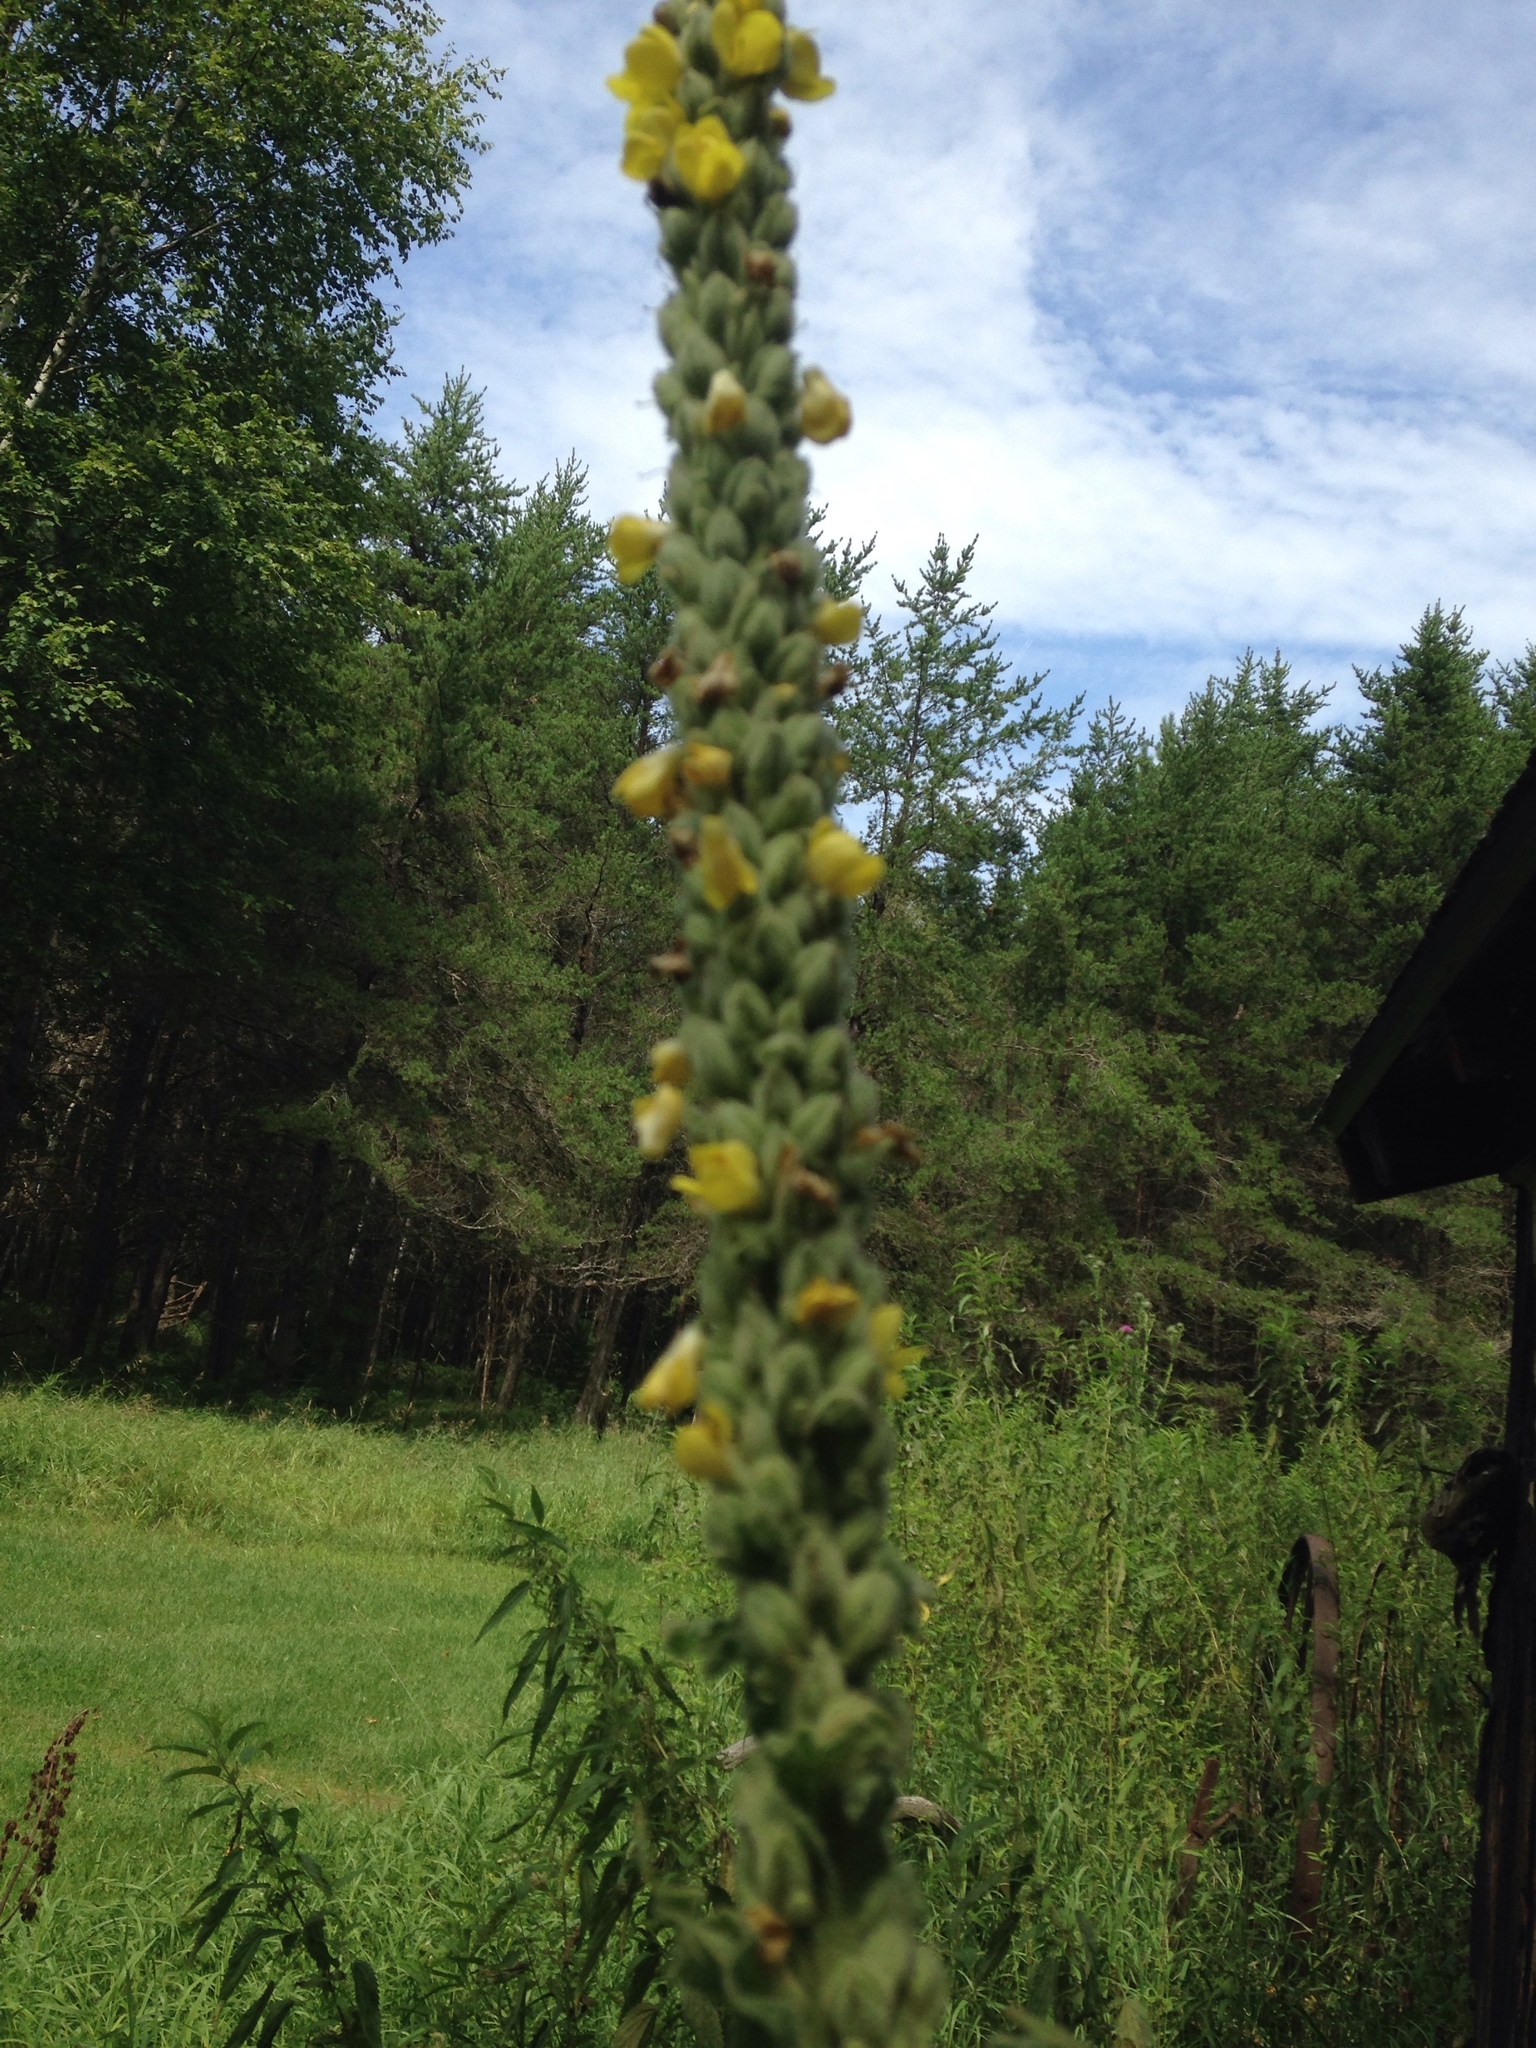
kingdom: Plantae
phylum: Tracheophyta
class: Magnoliopsida
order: Lamiales
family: Scrophulariaceae
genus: Verbascum
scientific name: Verbascum thapsus
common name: Common mullein
